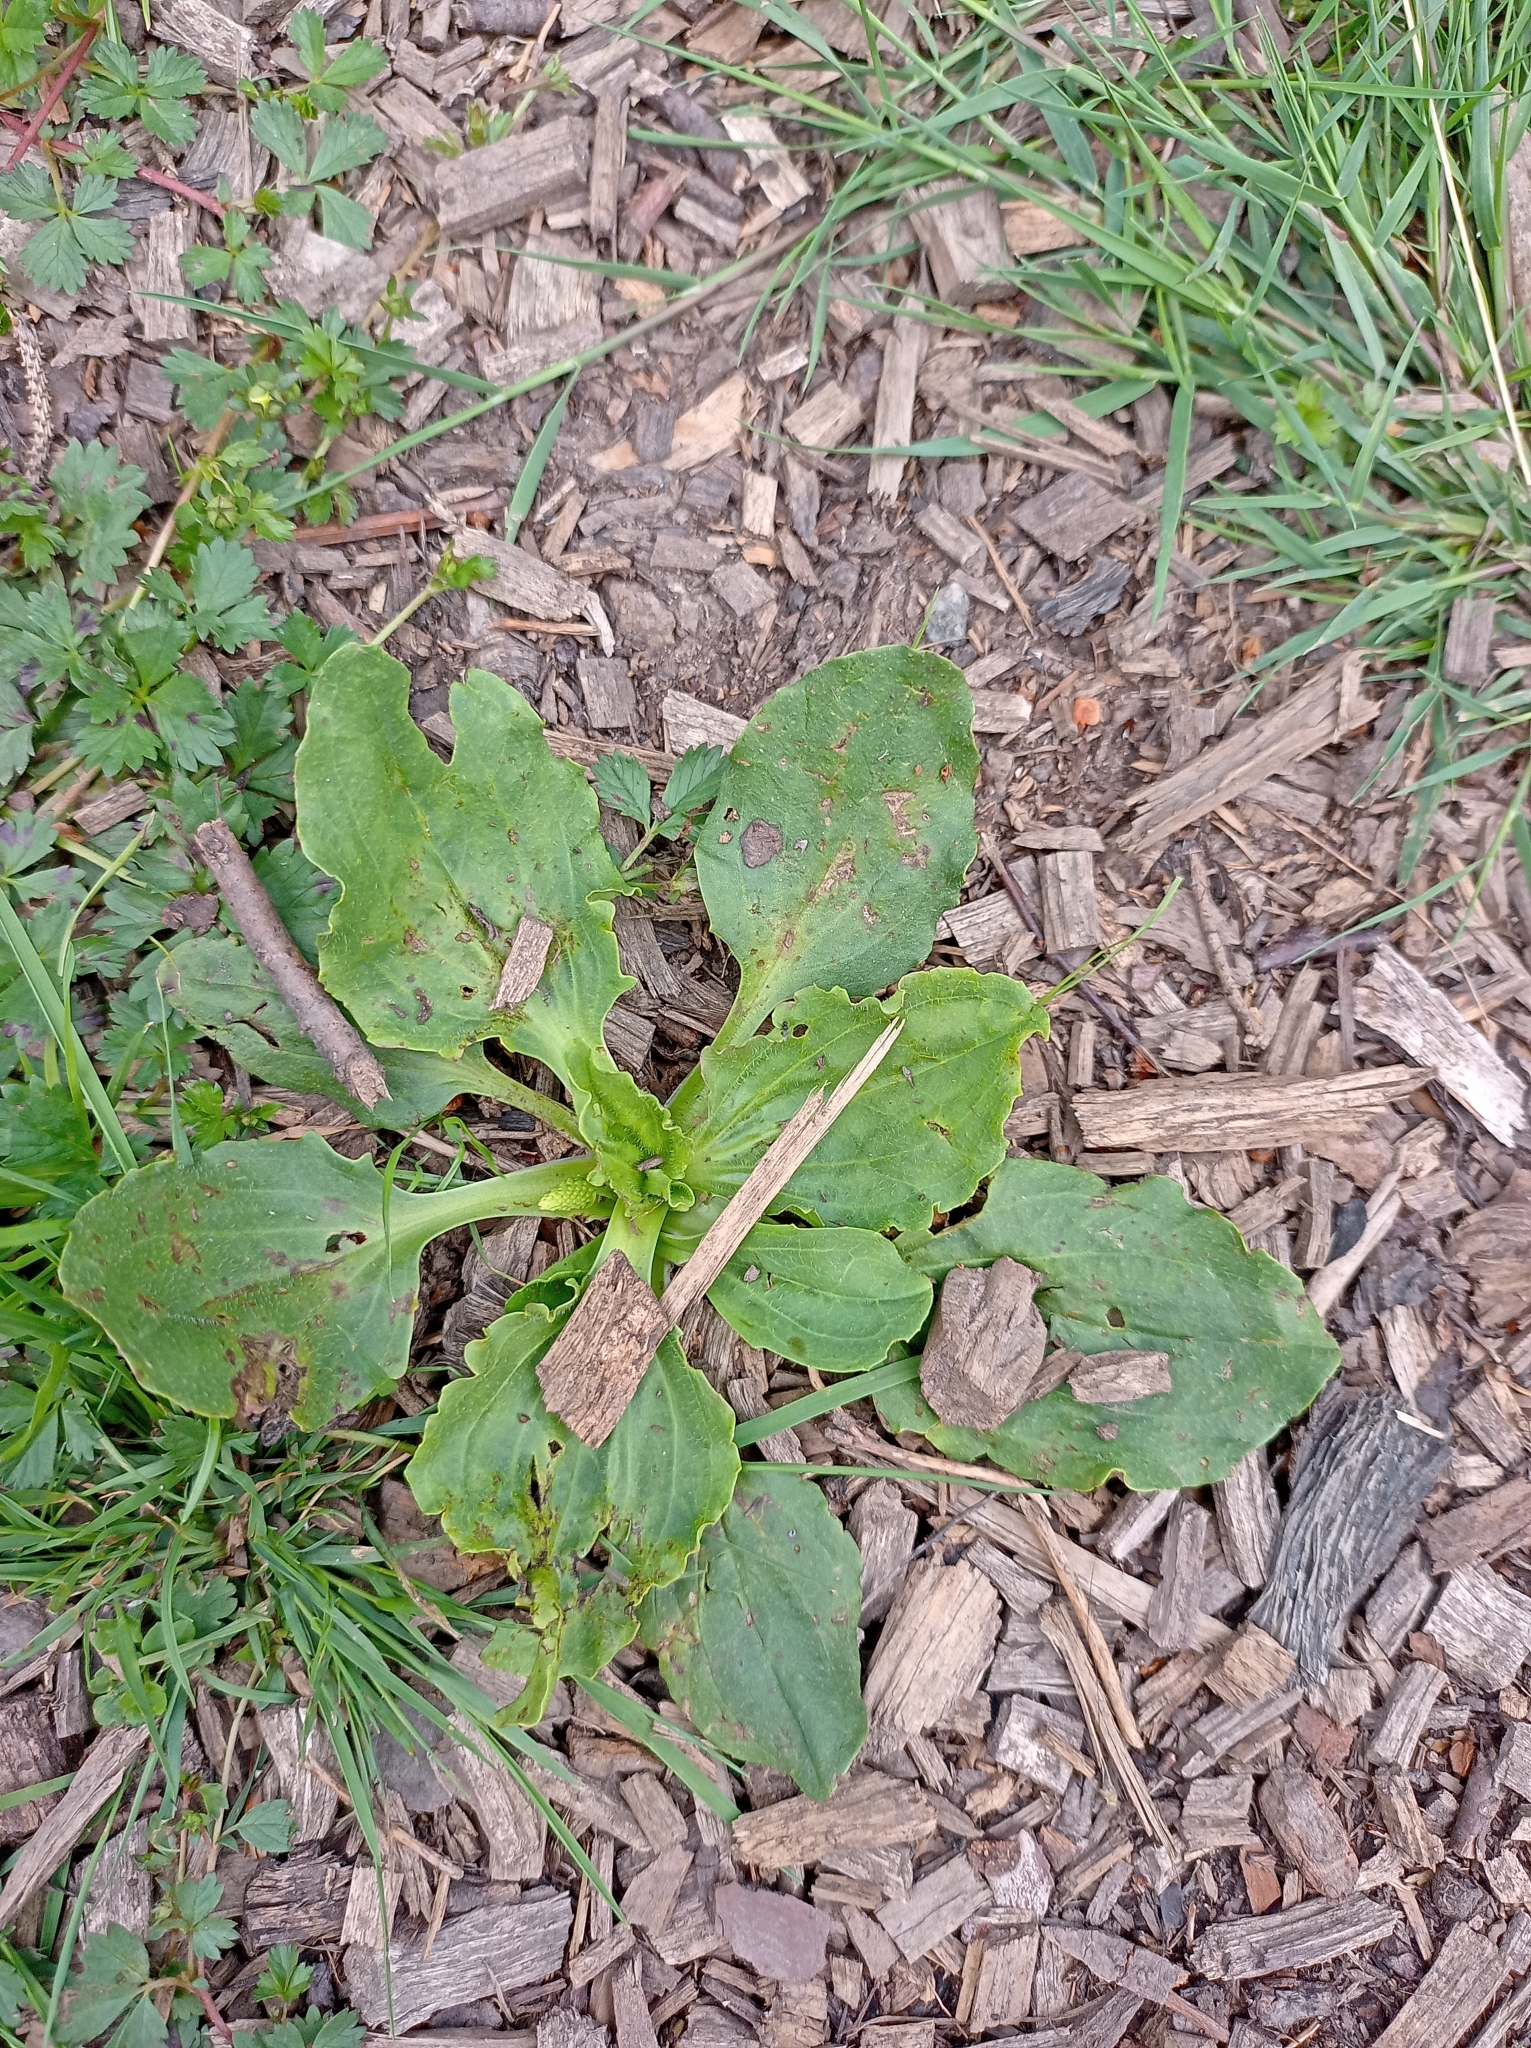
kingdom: Plantae
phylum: Tracheophyta
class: Magnoliopsida
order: Lamiales
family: Plantaginaceae
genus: Plantago
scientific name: Plantago major
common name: Common plantain
